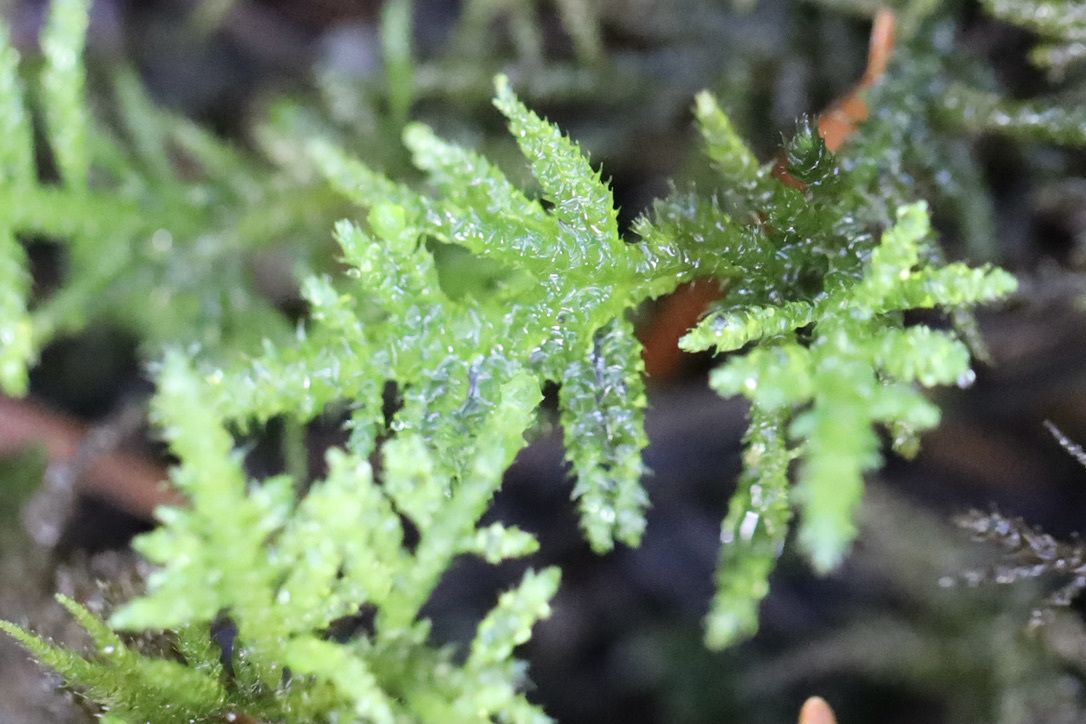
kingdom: Plantae
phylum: Bryophyta
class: Bryopsida
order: Hypnales
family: Brachytheciaceae
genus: Kindbergia
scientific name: Kindbergia oregana
